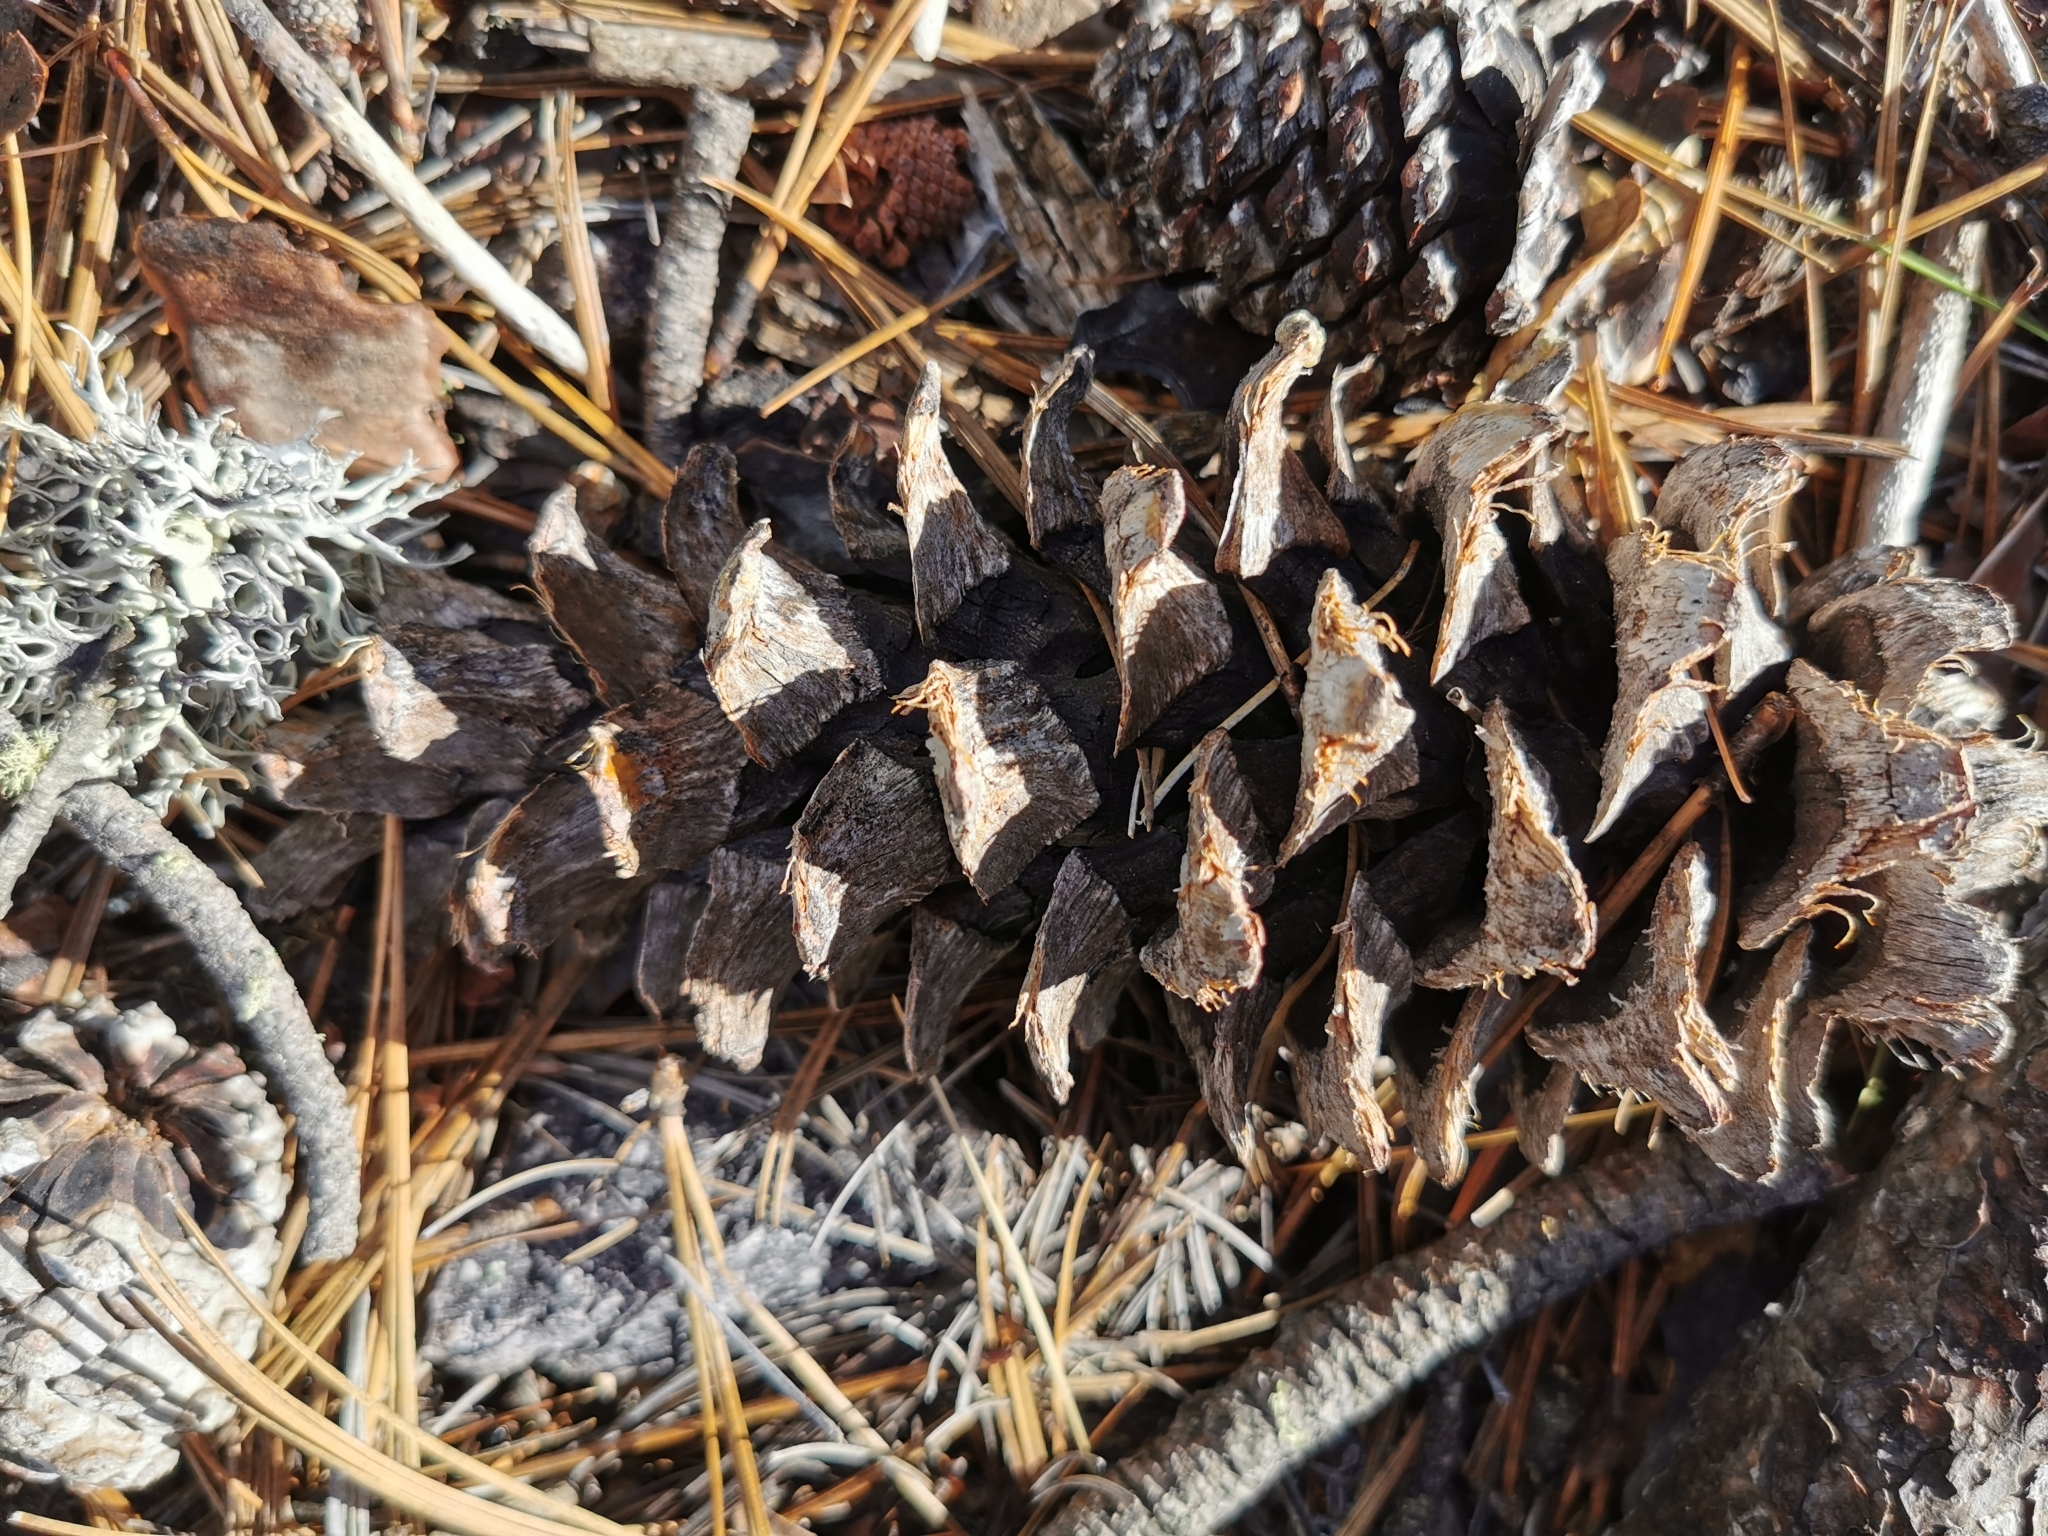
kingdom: Plantae
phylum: Tracheophyta
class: Pinopsida
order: Pinales
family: Pinaceae
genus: Pinus
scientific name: Pinus strobiformis
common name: Southwestern white pine
